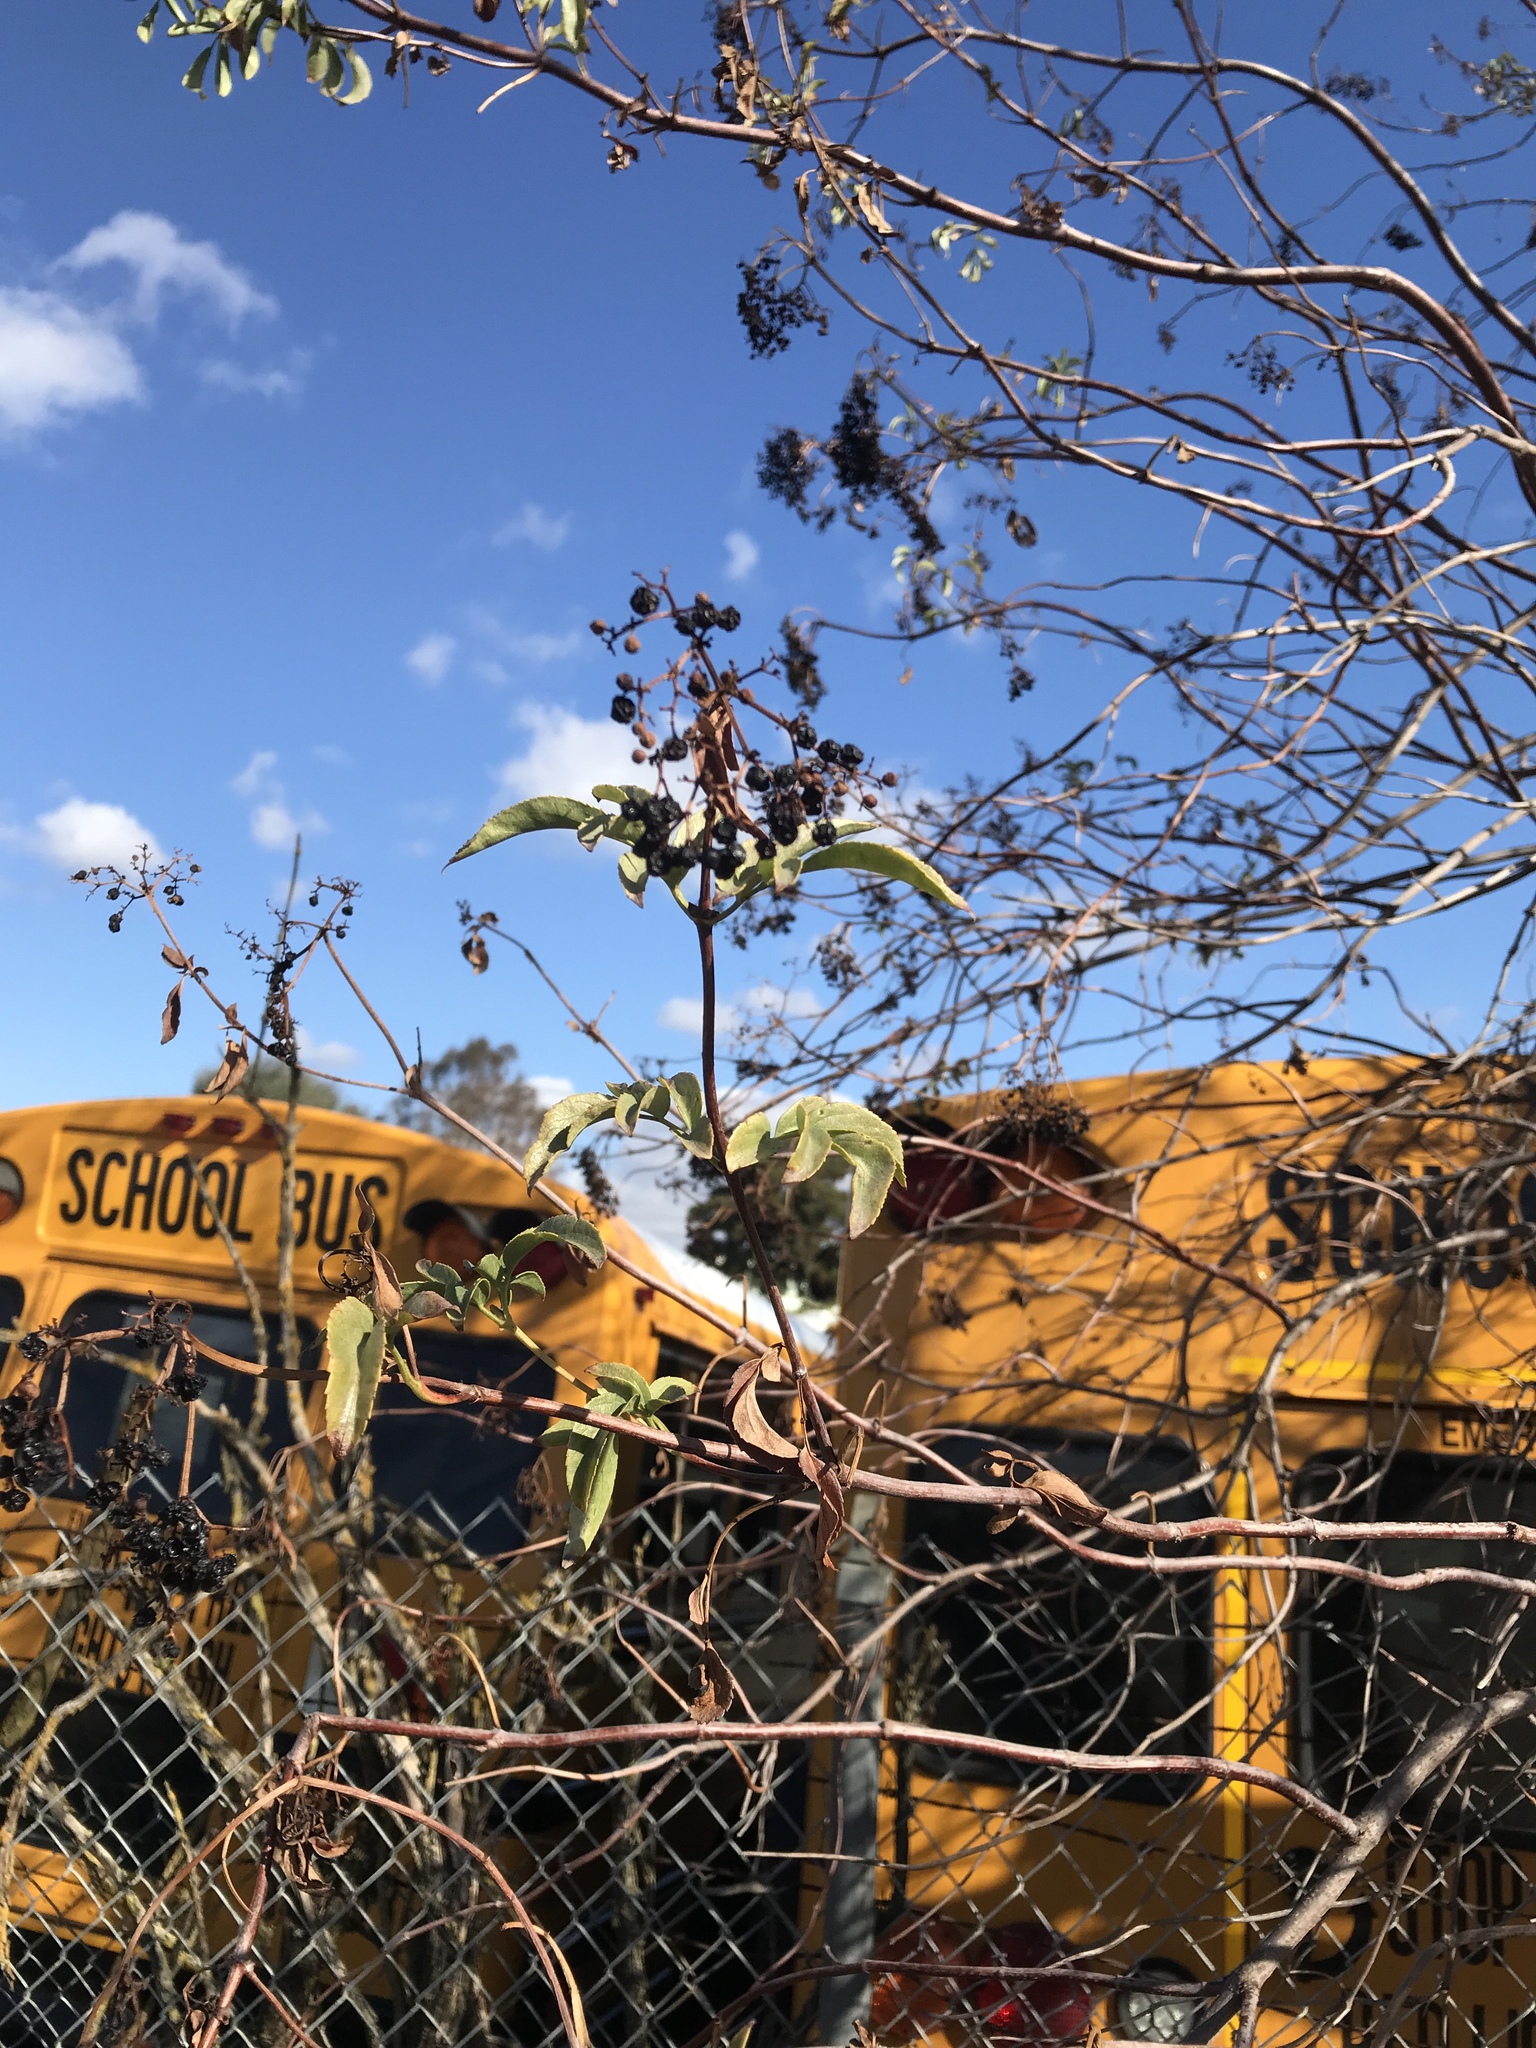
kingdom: Plantae
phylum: Tracheophyta
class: Magnoliopsida
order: Dipsacales
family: Viburnaceae
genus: Sambucus
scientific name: Sambucus cerulea
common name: Blue elder
